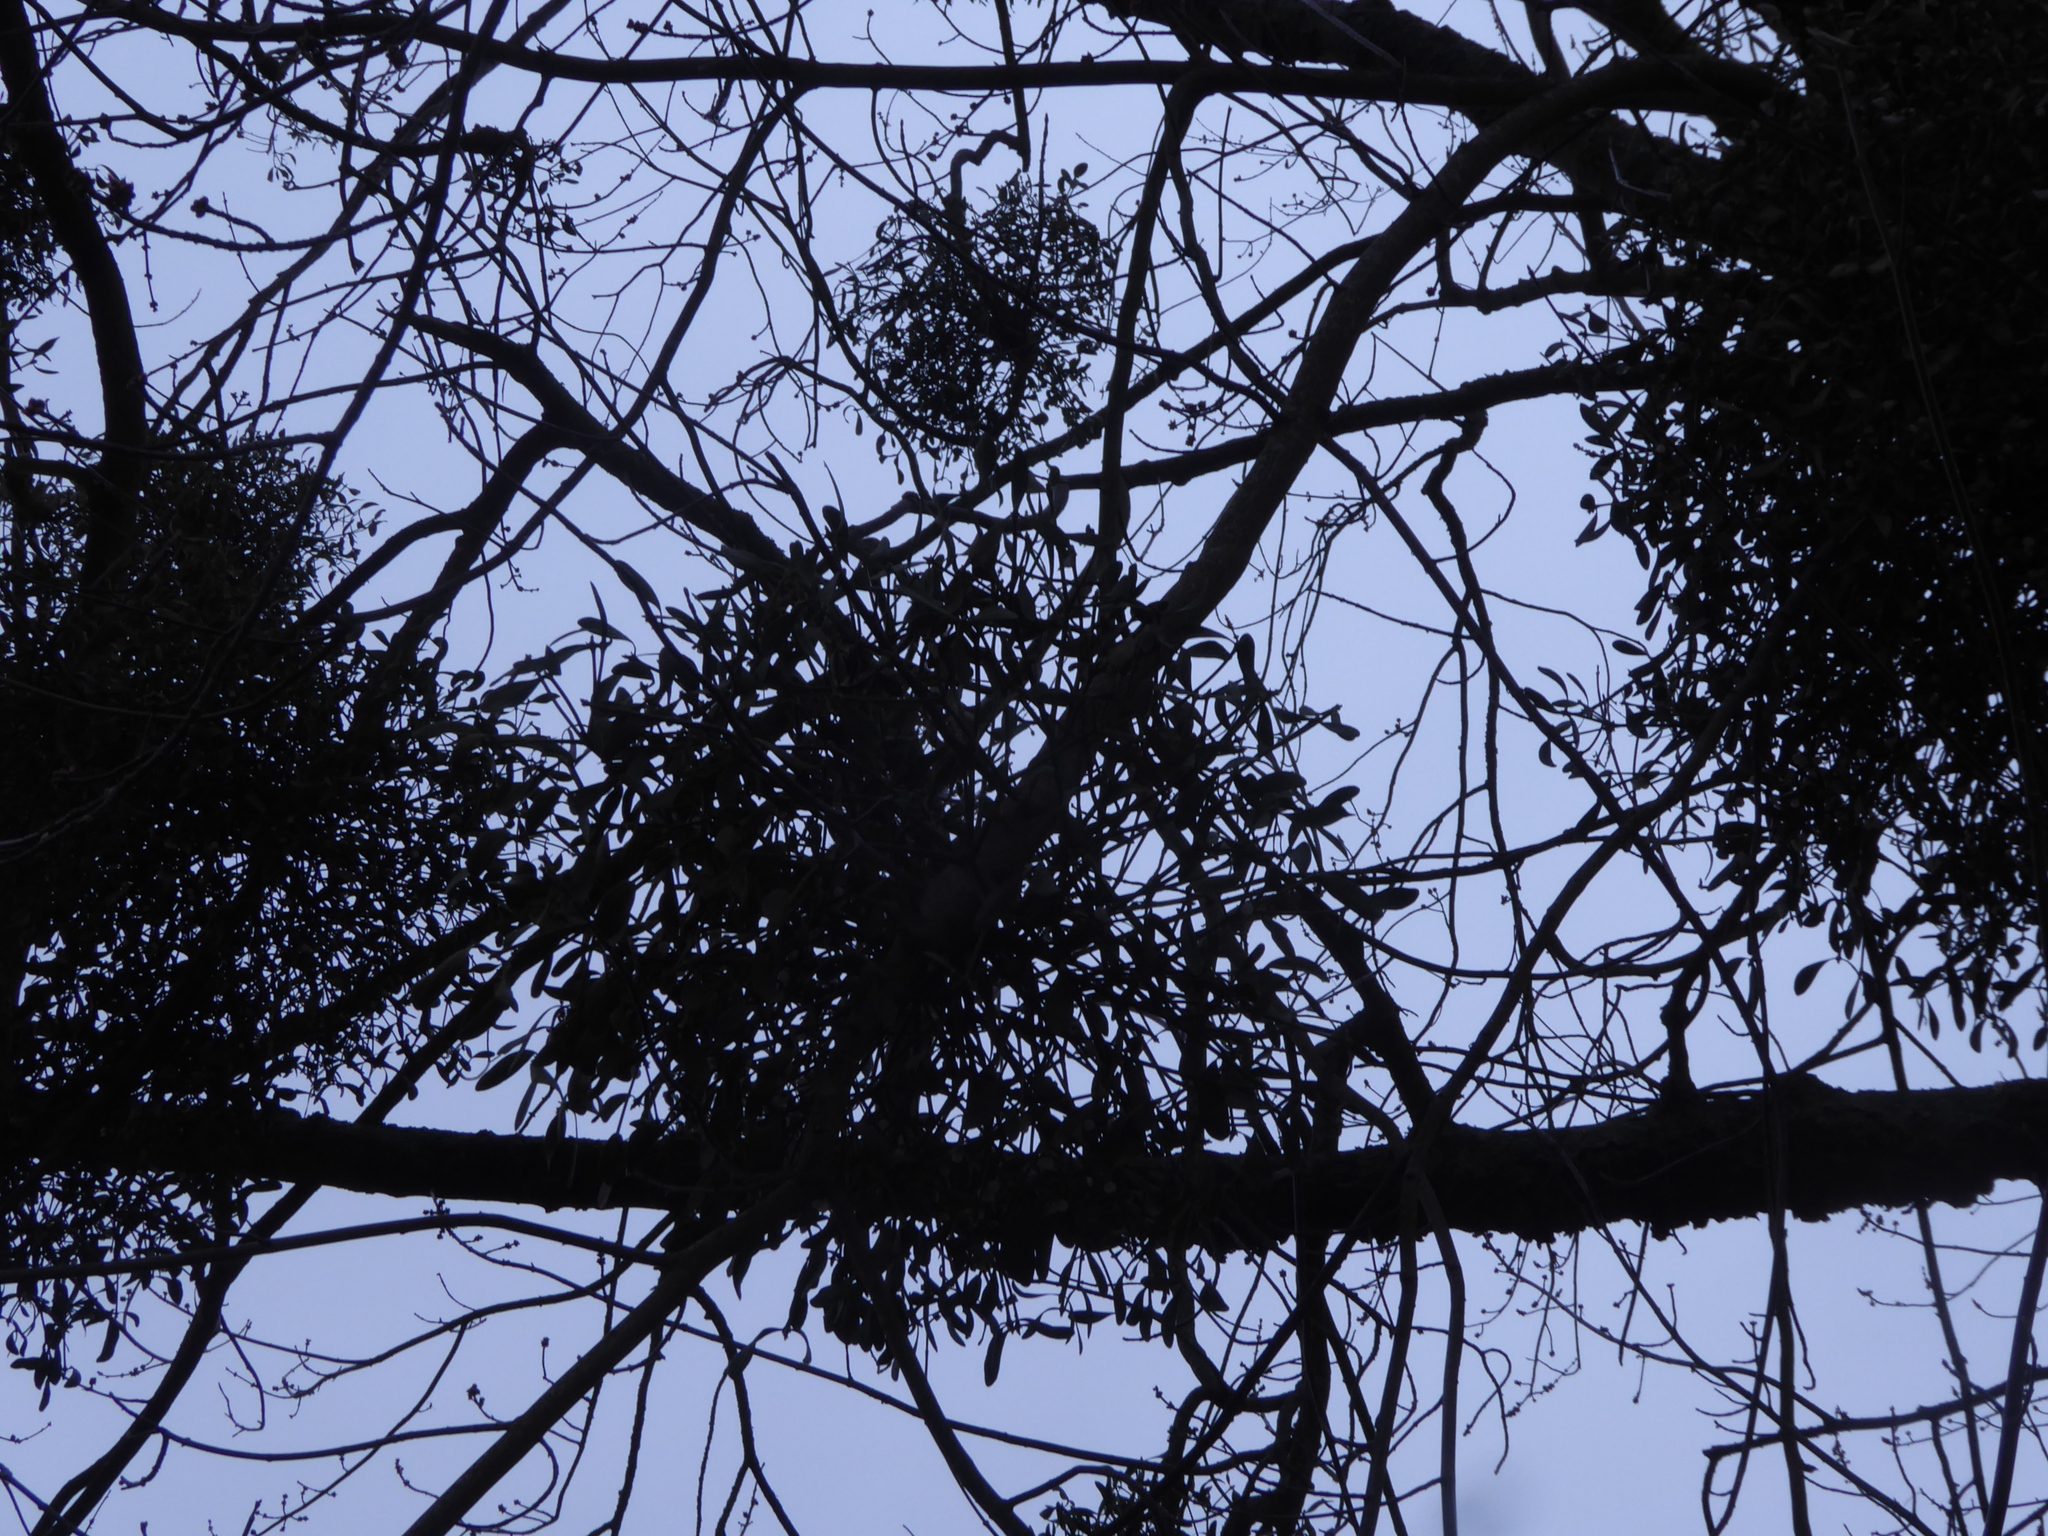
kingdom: Plantae
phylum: Tracheophyta
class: Magnoliopsida
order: Santalales
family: Viscaceae
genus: Viscum
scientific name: Viscum album
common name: Mistletoe
